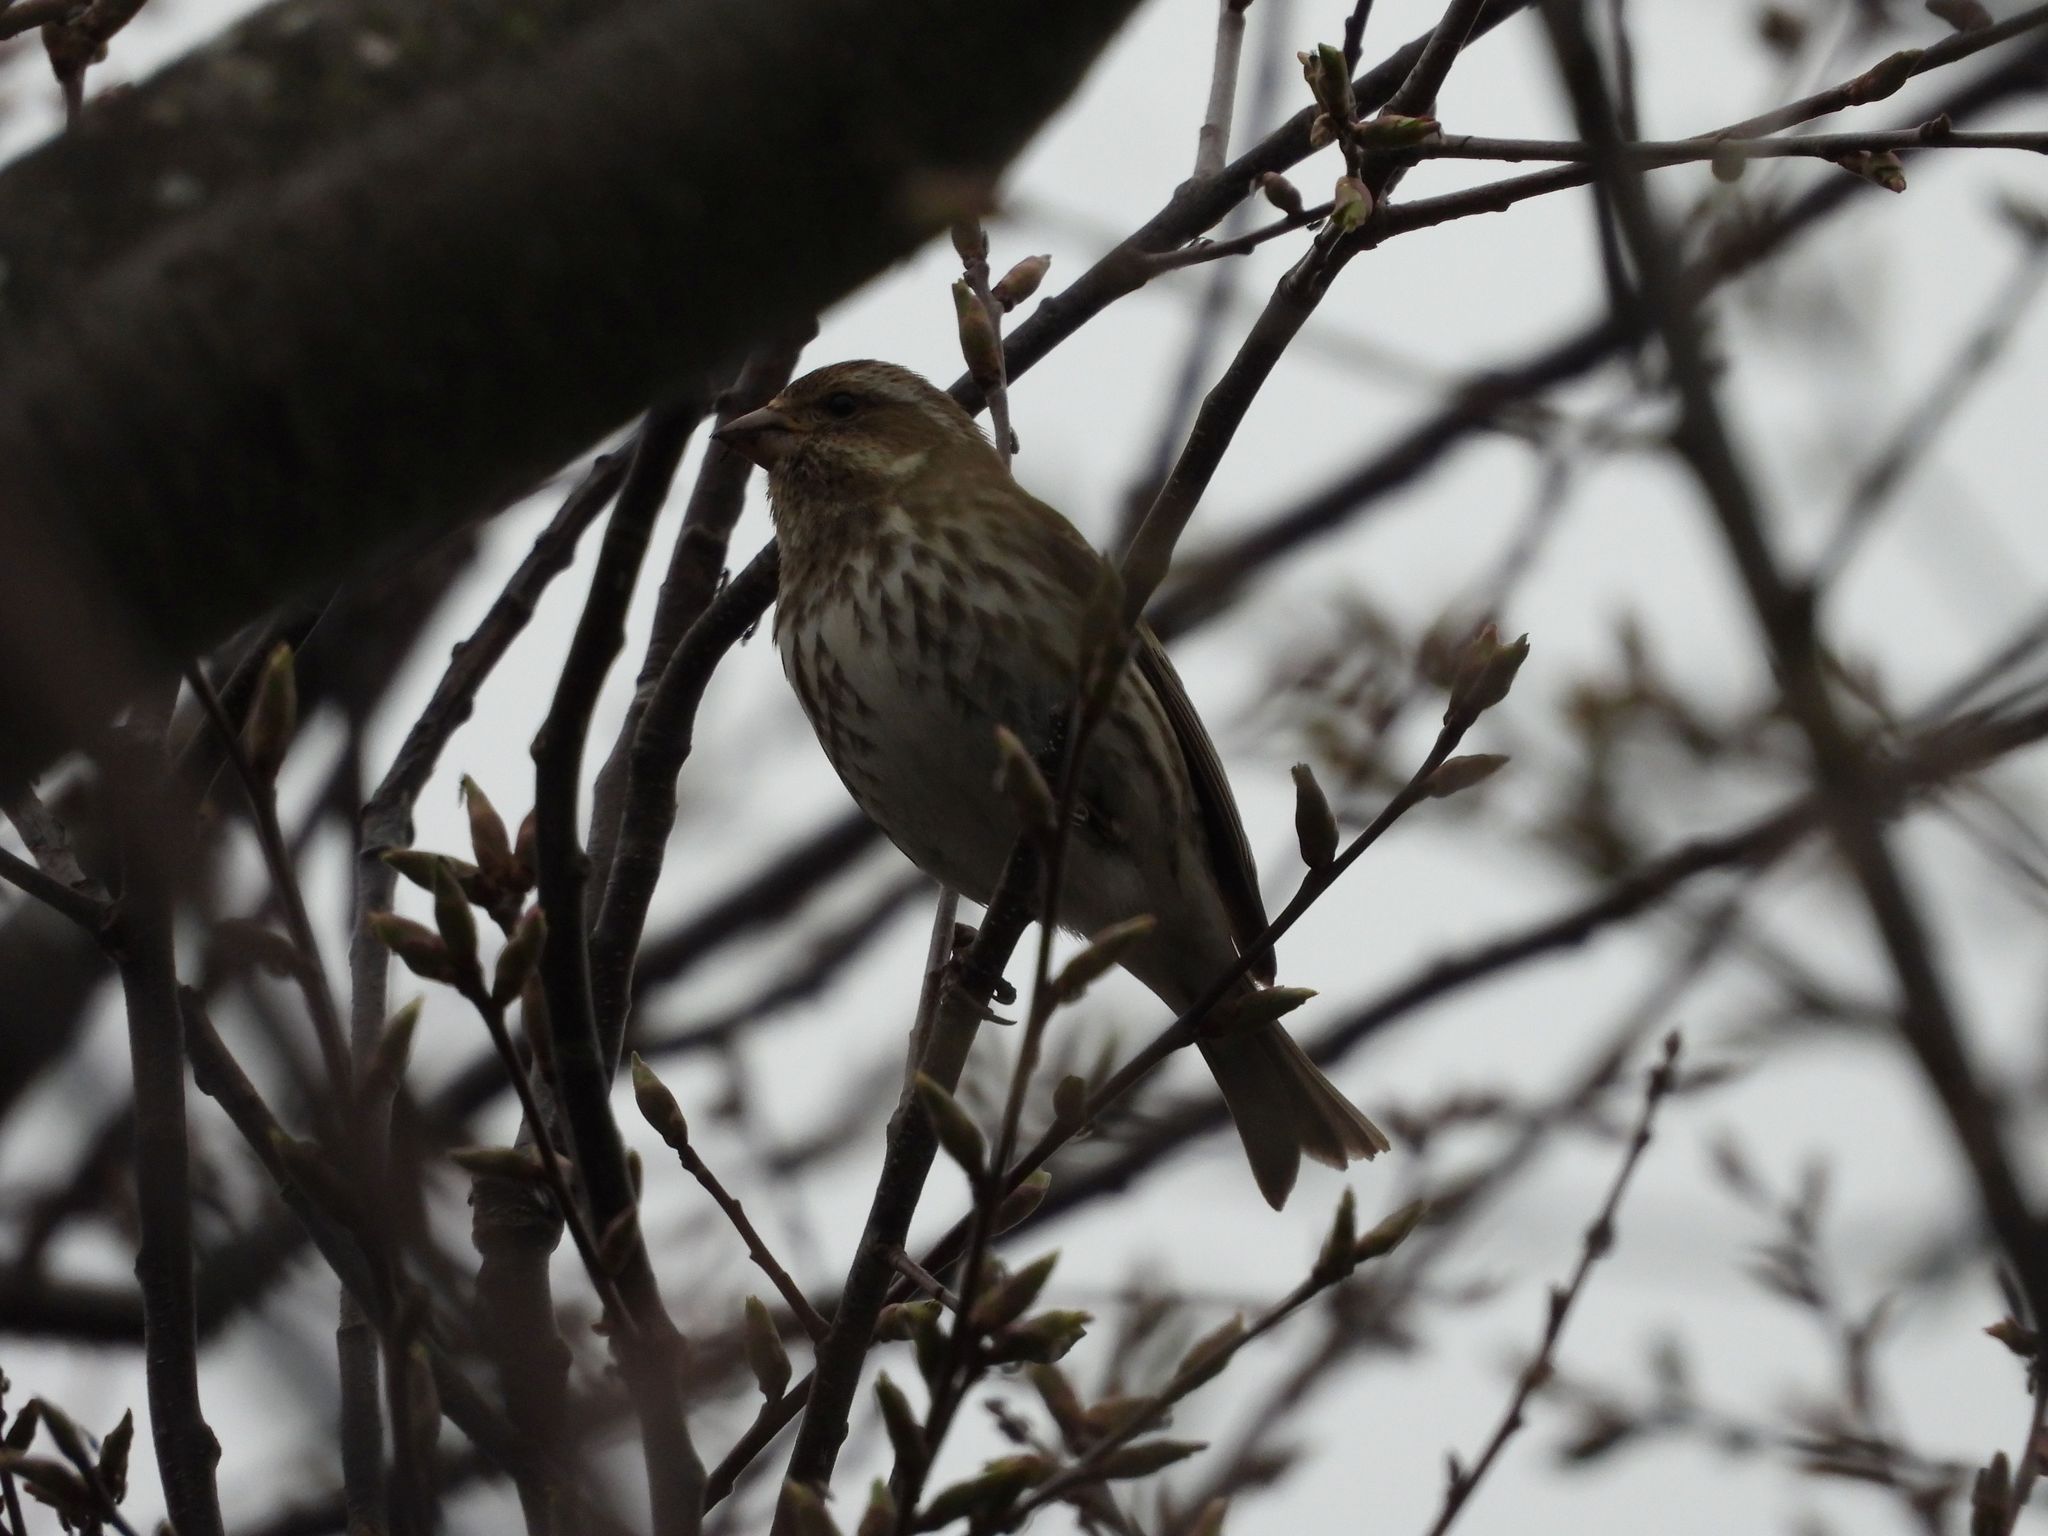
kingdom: Animalia
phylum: Chordata
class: Aves
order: Passeriformes
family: Fringillidae
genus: Haemorhous
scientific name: Haemorhous purpureus
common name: Purple finch
